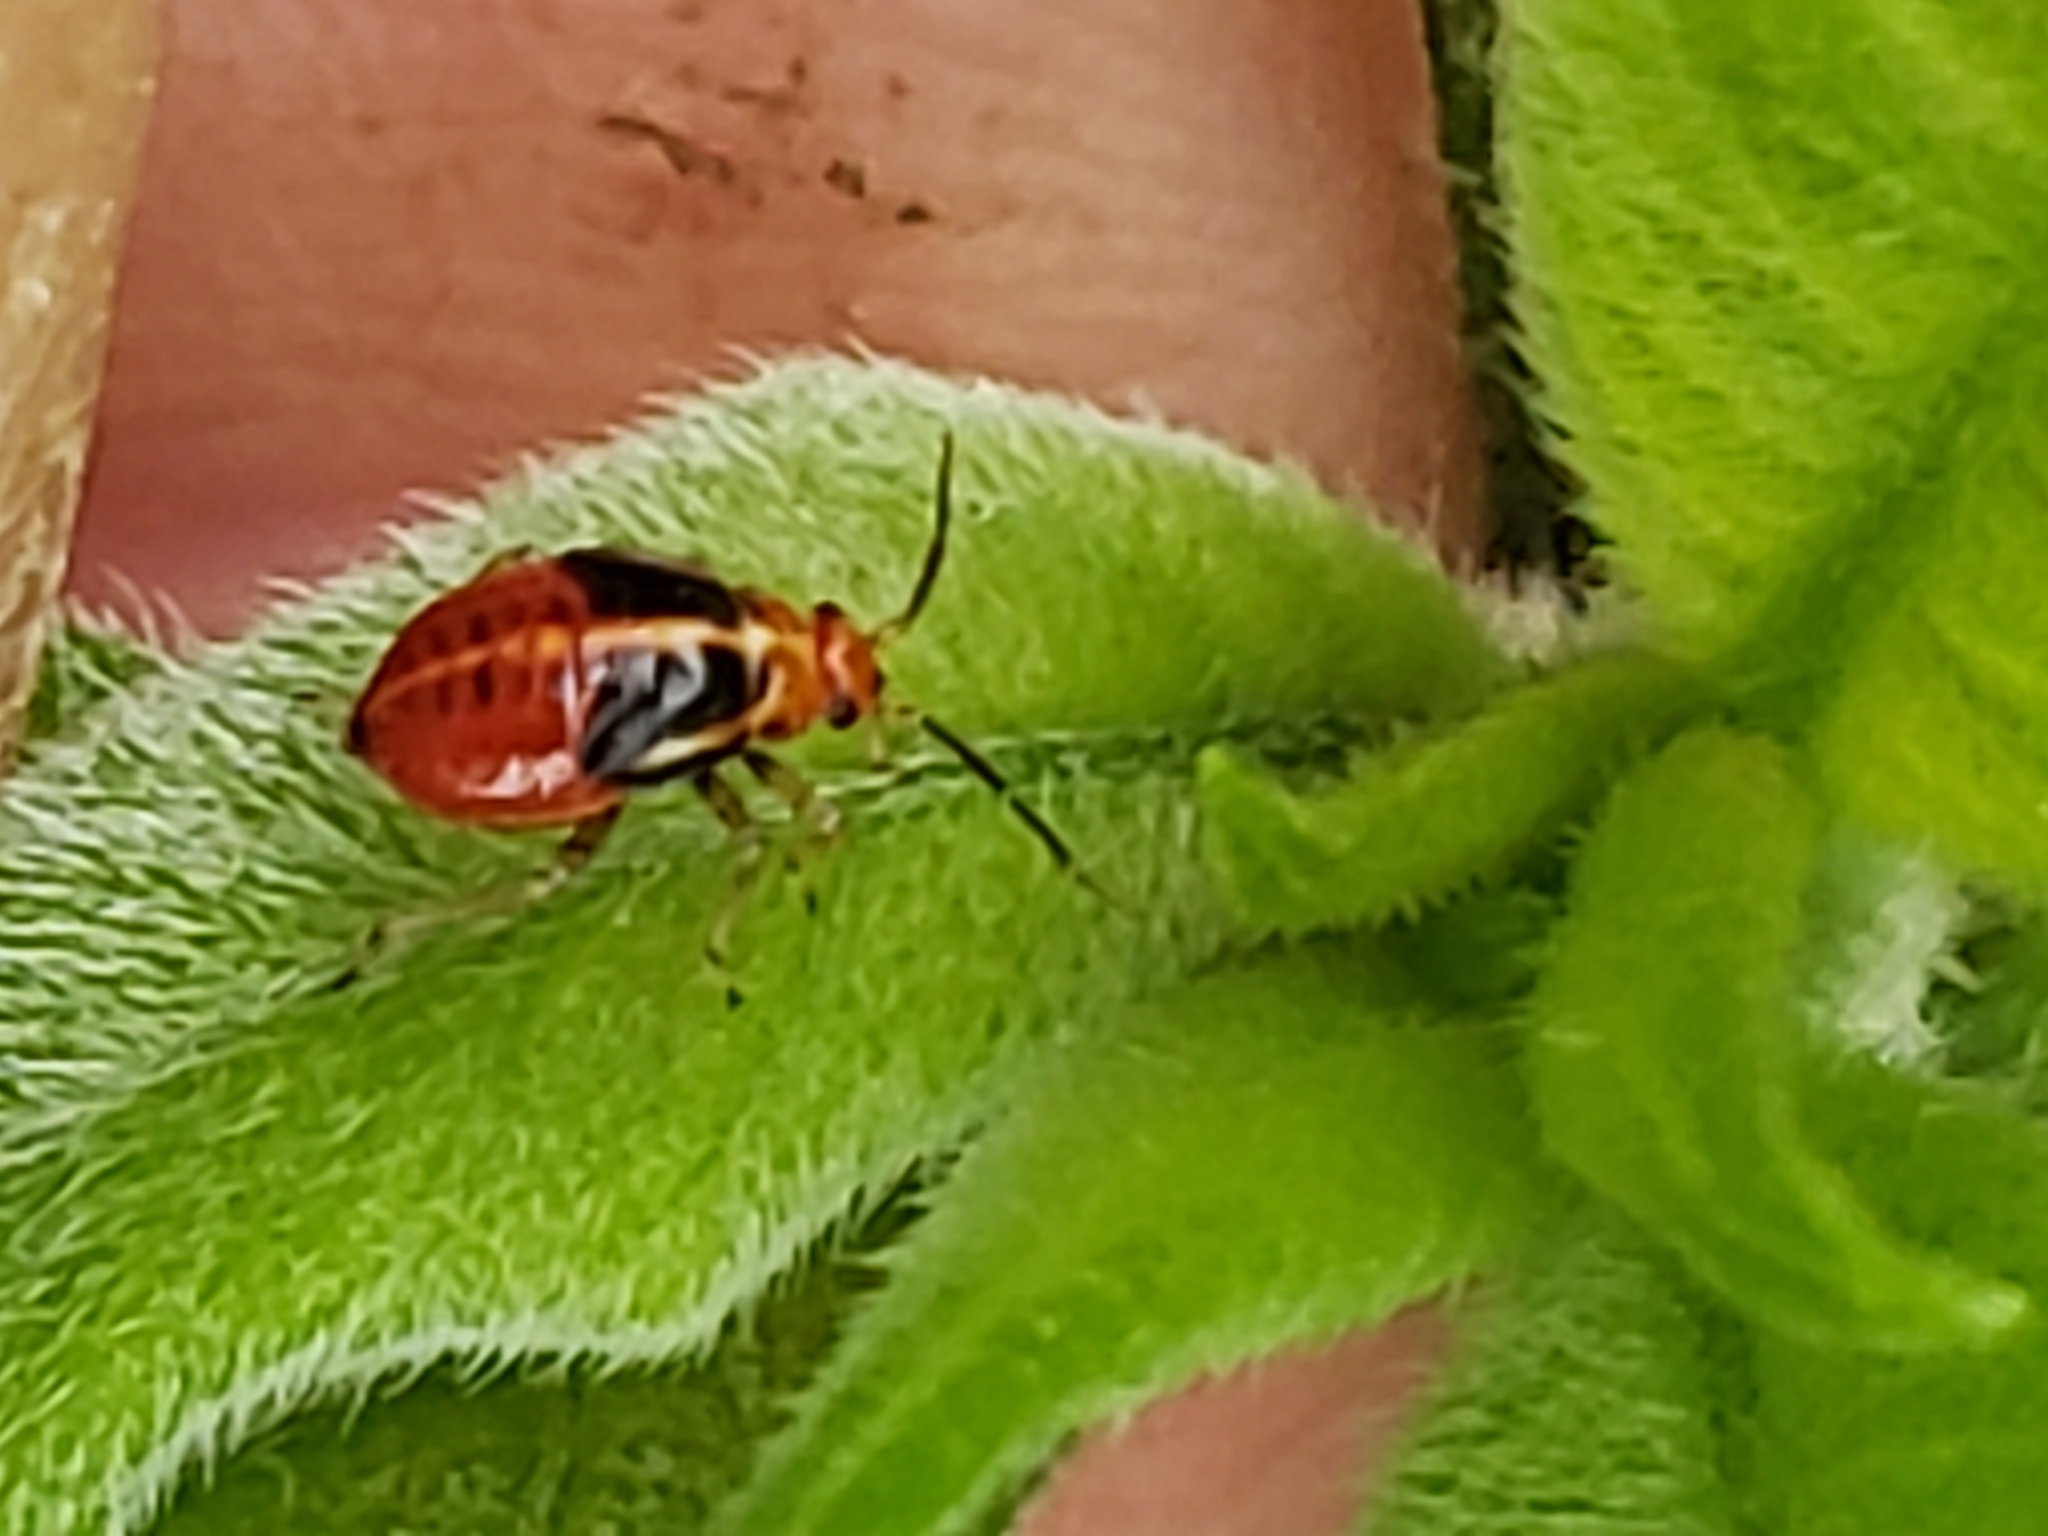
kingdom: Animalia
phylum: Arthropoda
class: Insecta
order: Hemiptera
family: Miridae
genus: Poecilocapsus
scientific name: Poecilocapsus lineatus
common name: Four-lined plant bug
